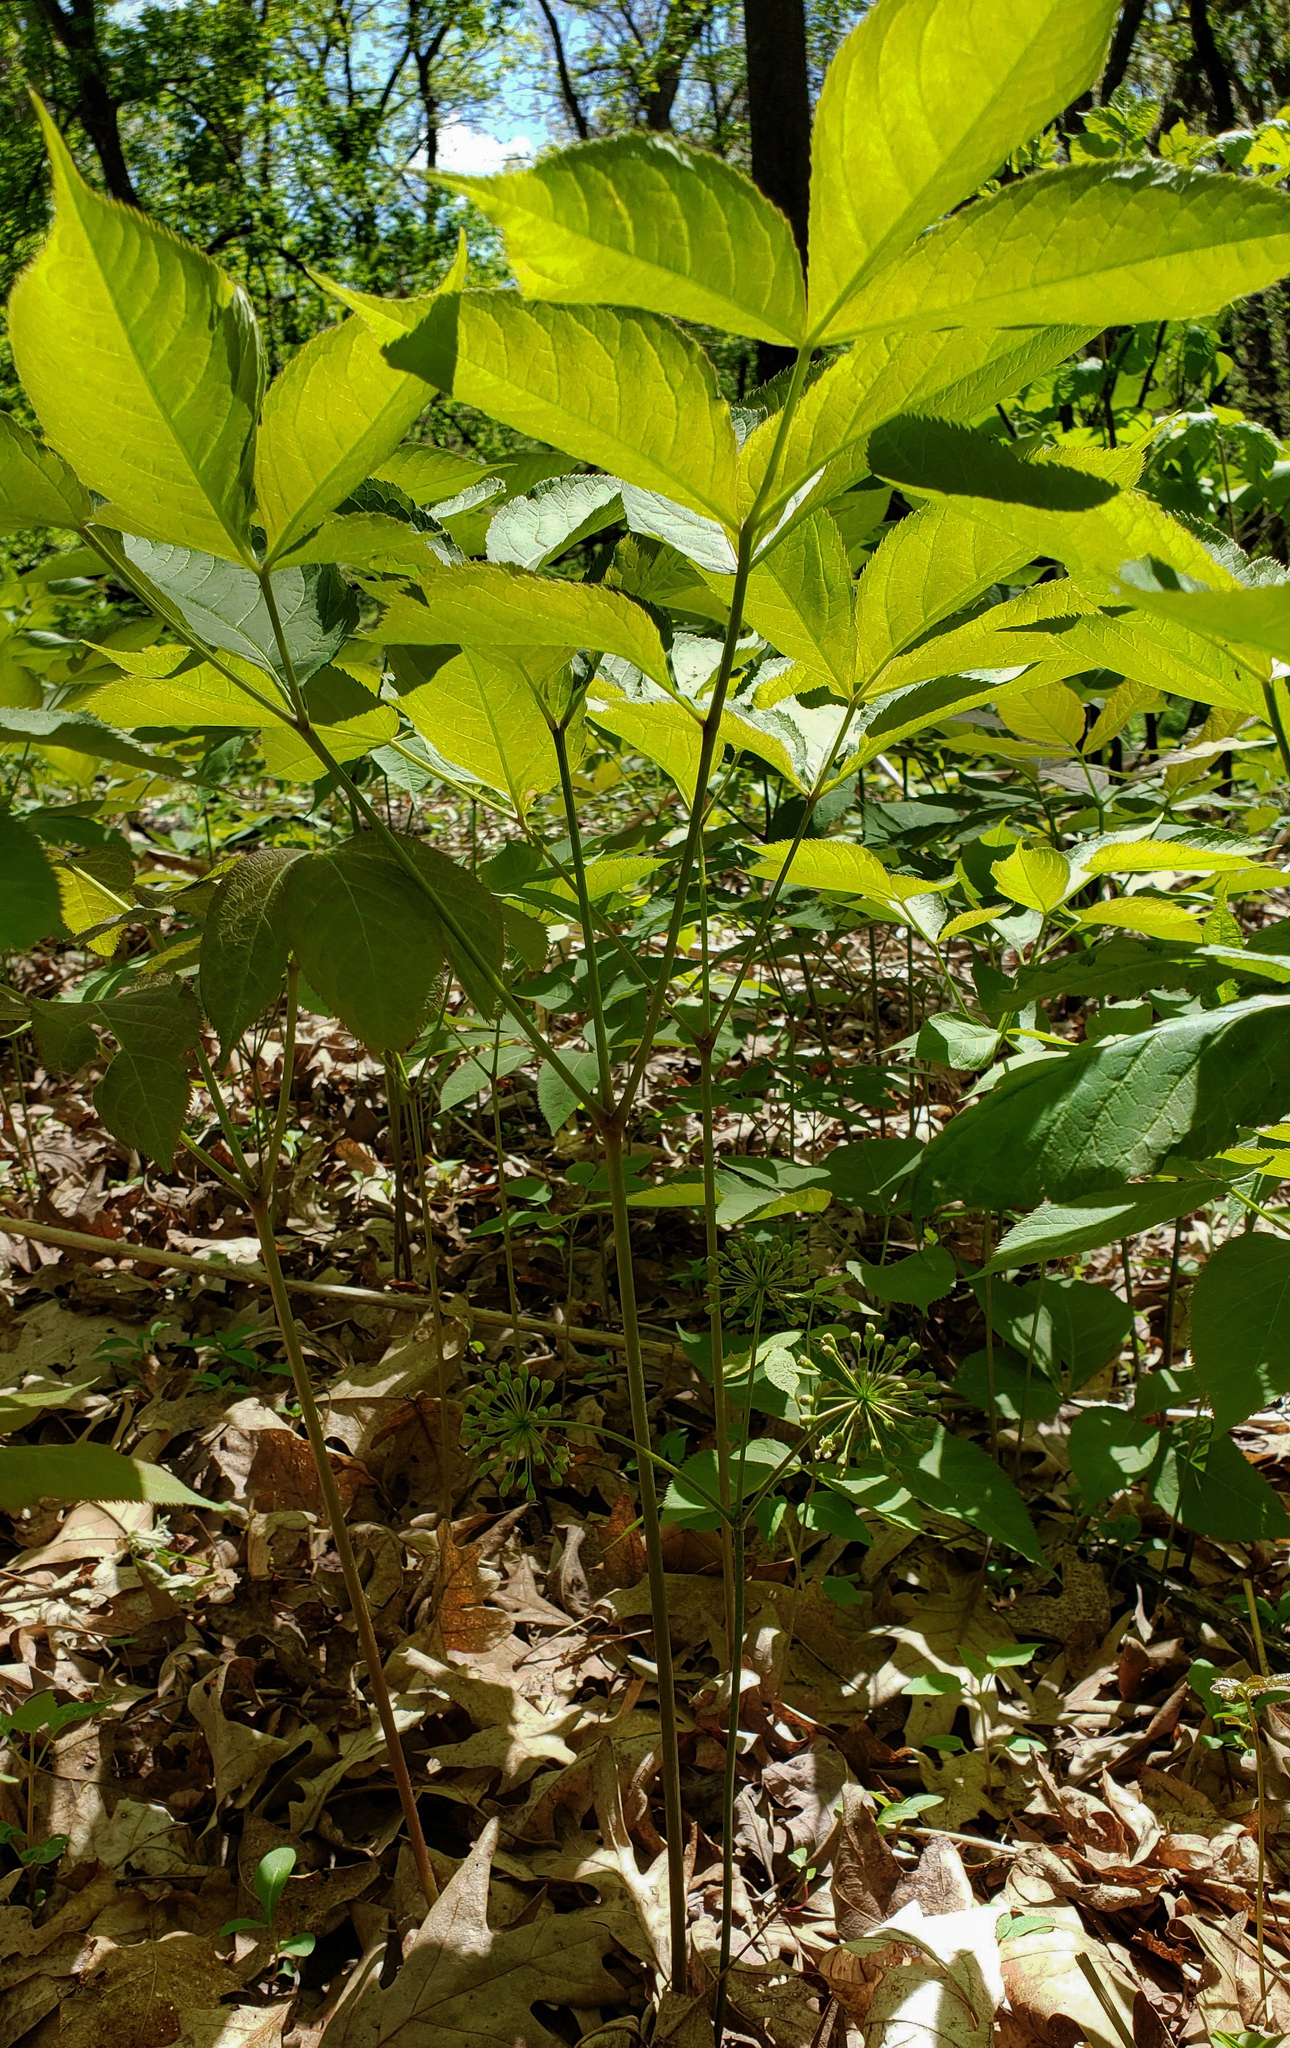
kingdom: Plantae
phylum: Tracheophyta
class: Magnoliopsida
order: Apiales
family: Araliaceae
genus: Aralia
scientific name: Aralia nudicaulis
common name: Wild sarsaparilla
